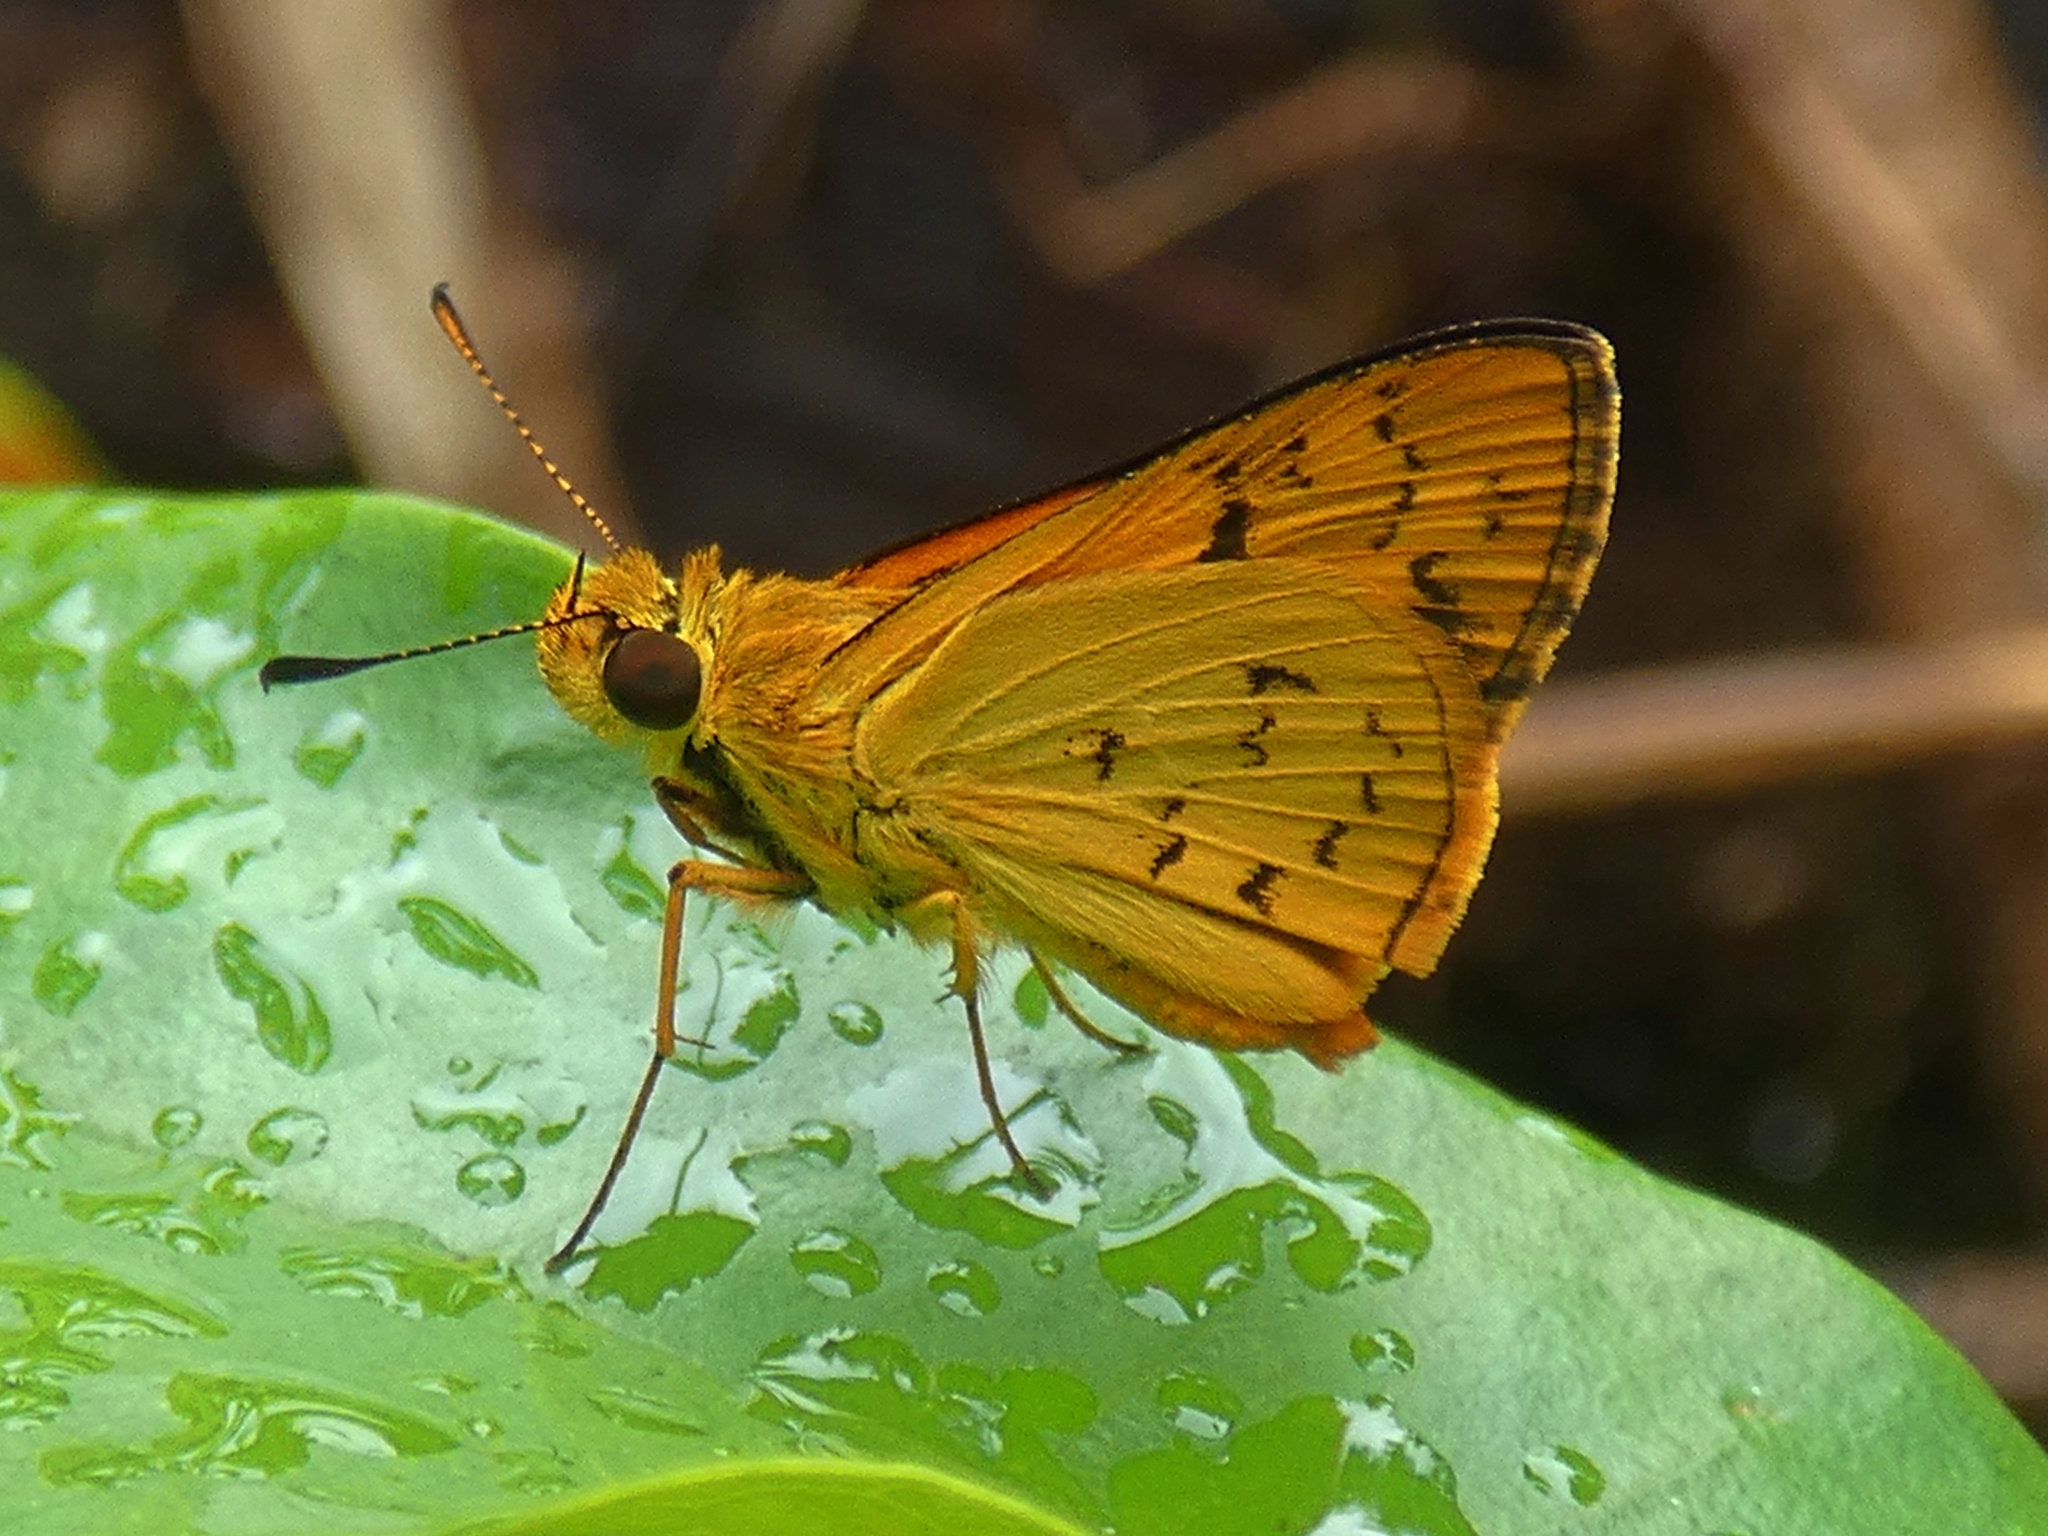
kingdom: Animalia
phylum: Arthropoda
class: Insecta
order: Lepidoptera
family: Hesperiidae
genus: Ocybadistes
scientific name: Ocybadistes ardea
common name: Dark orange dart
